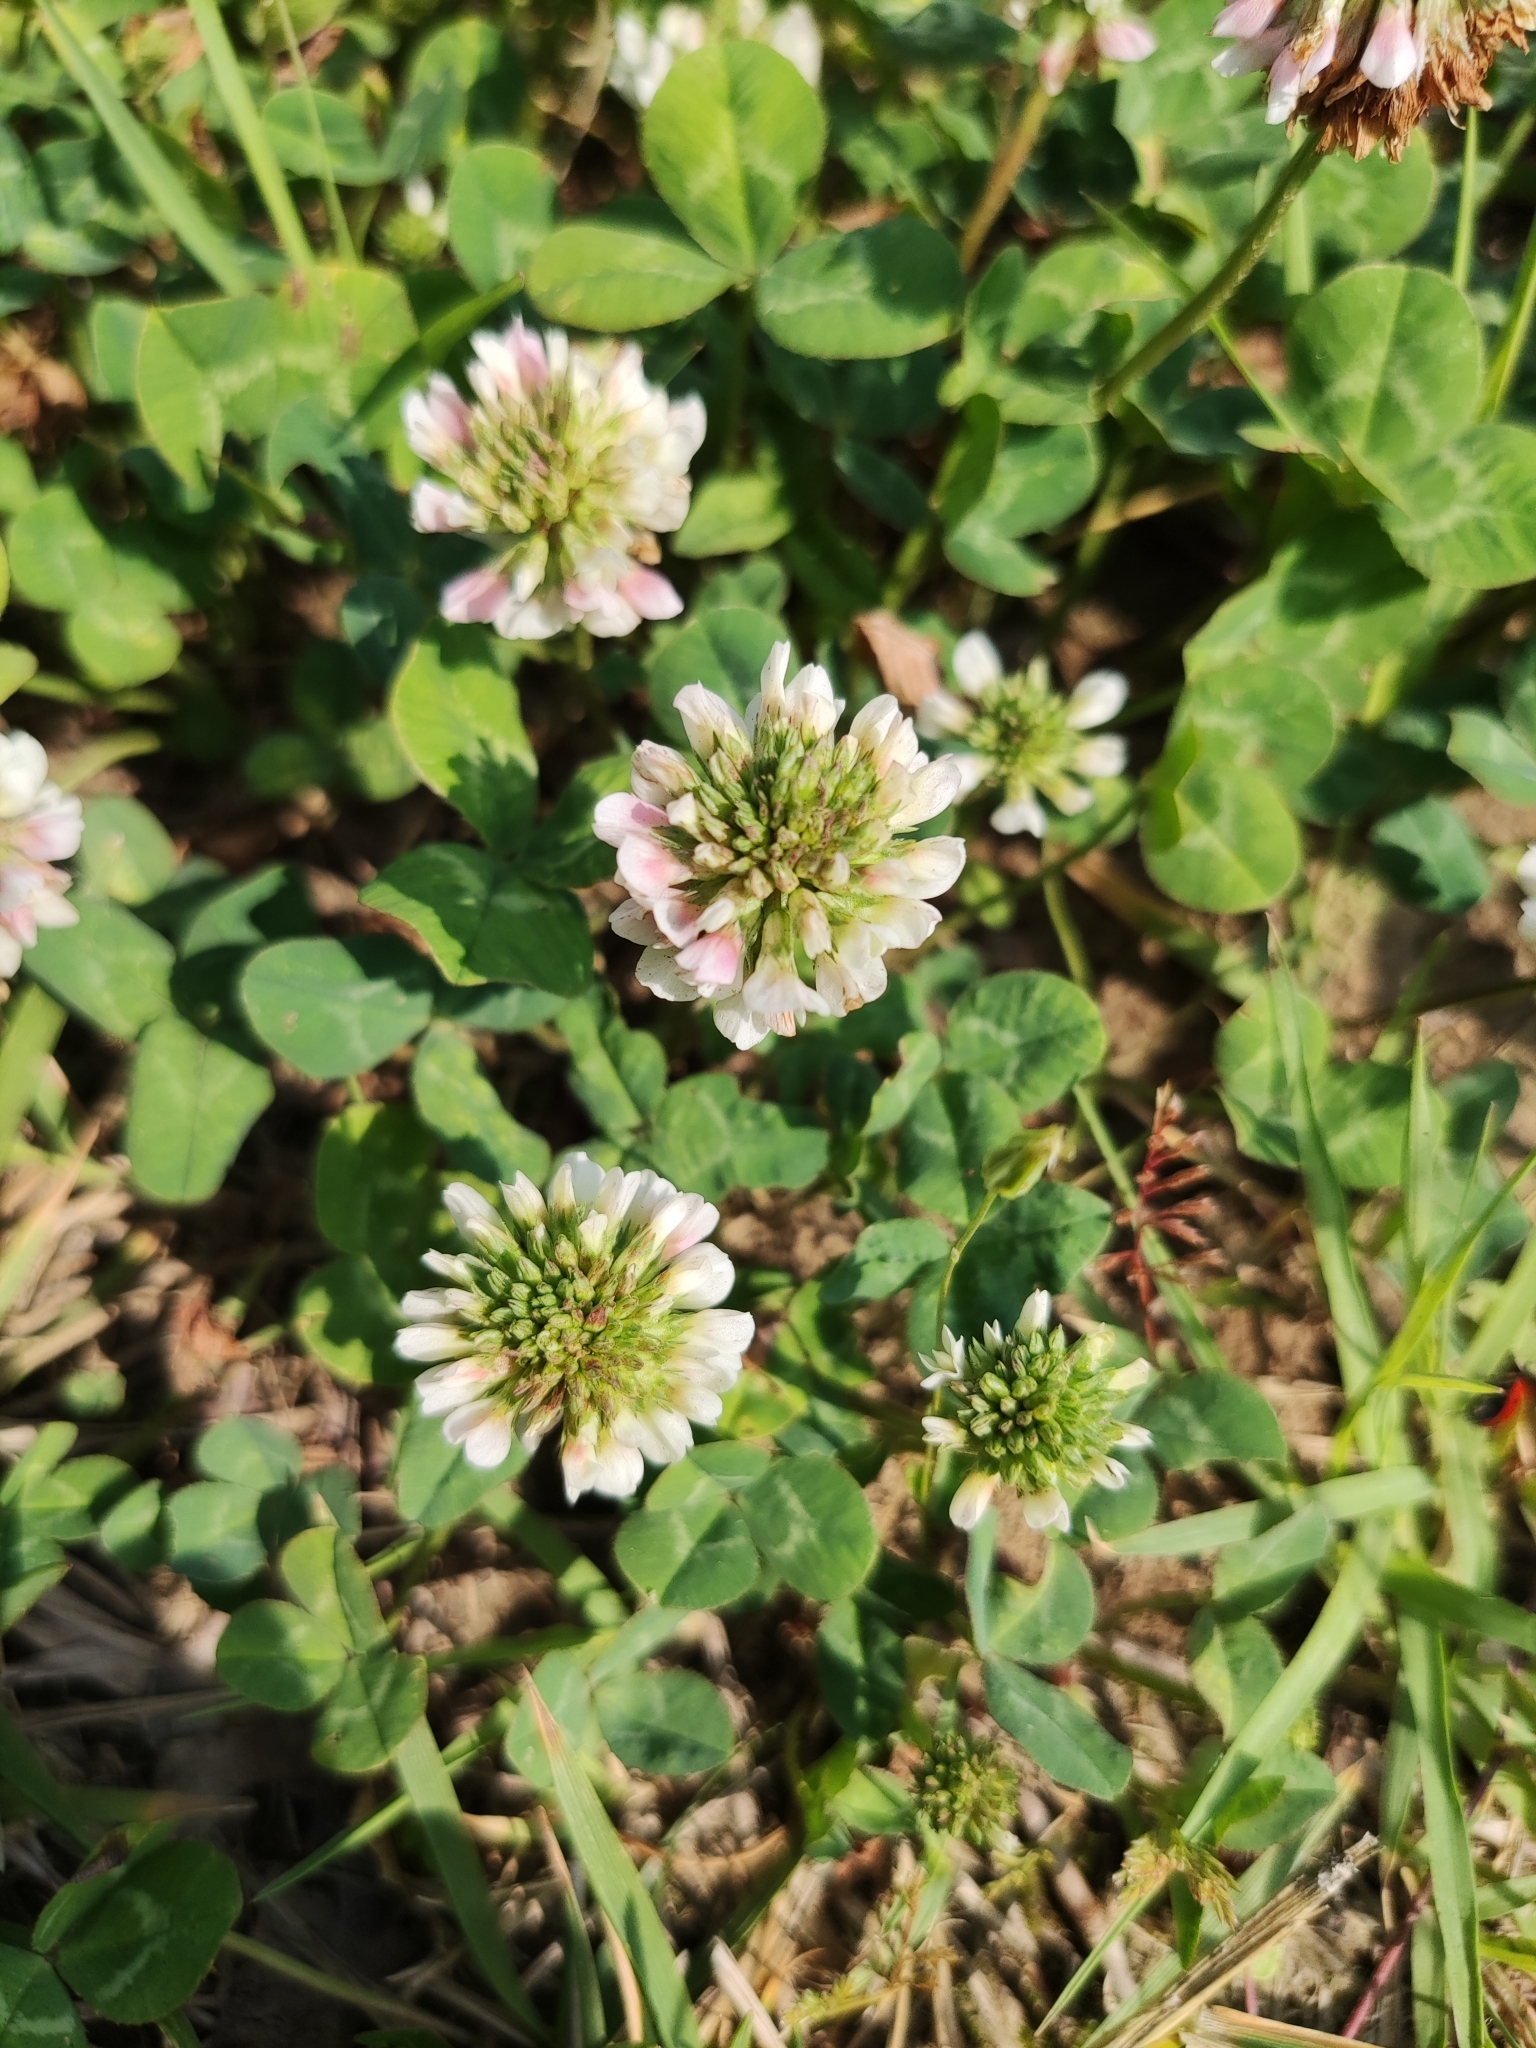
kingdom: Plantae
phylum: Tracheophyta
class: Magnoliopsida
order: Fabales
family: Fabaceae
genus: Trifolium
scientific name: Trifolium repens
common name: White clover
